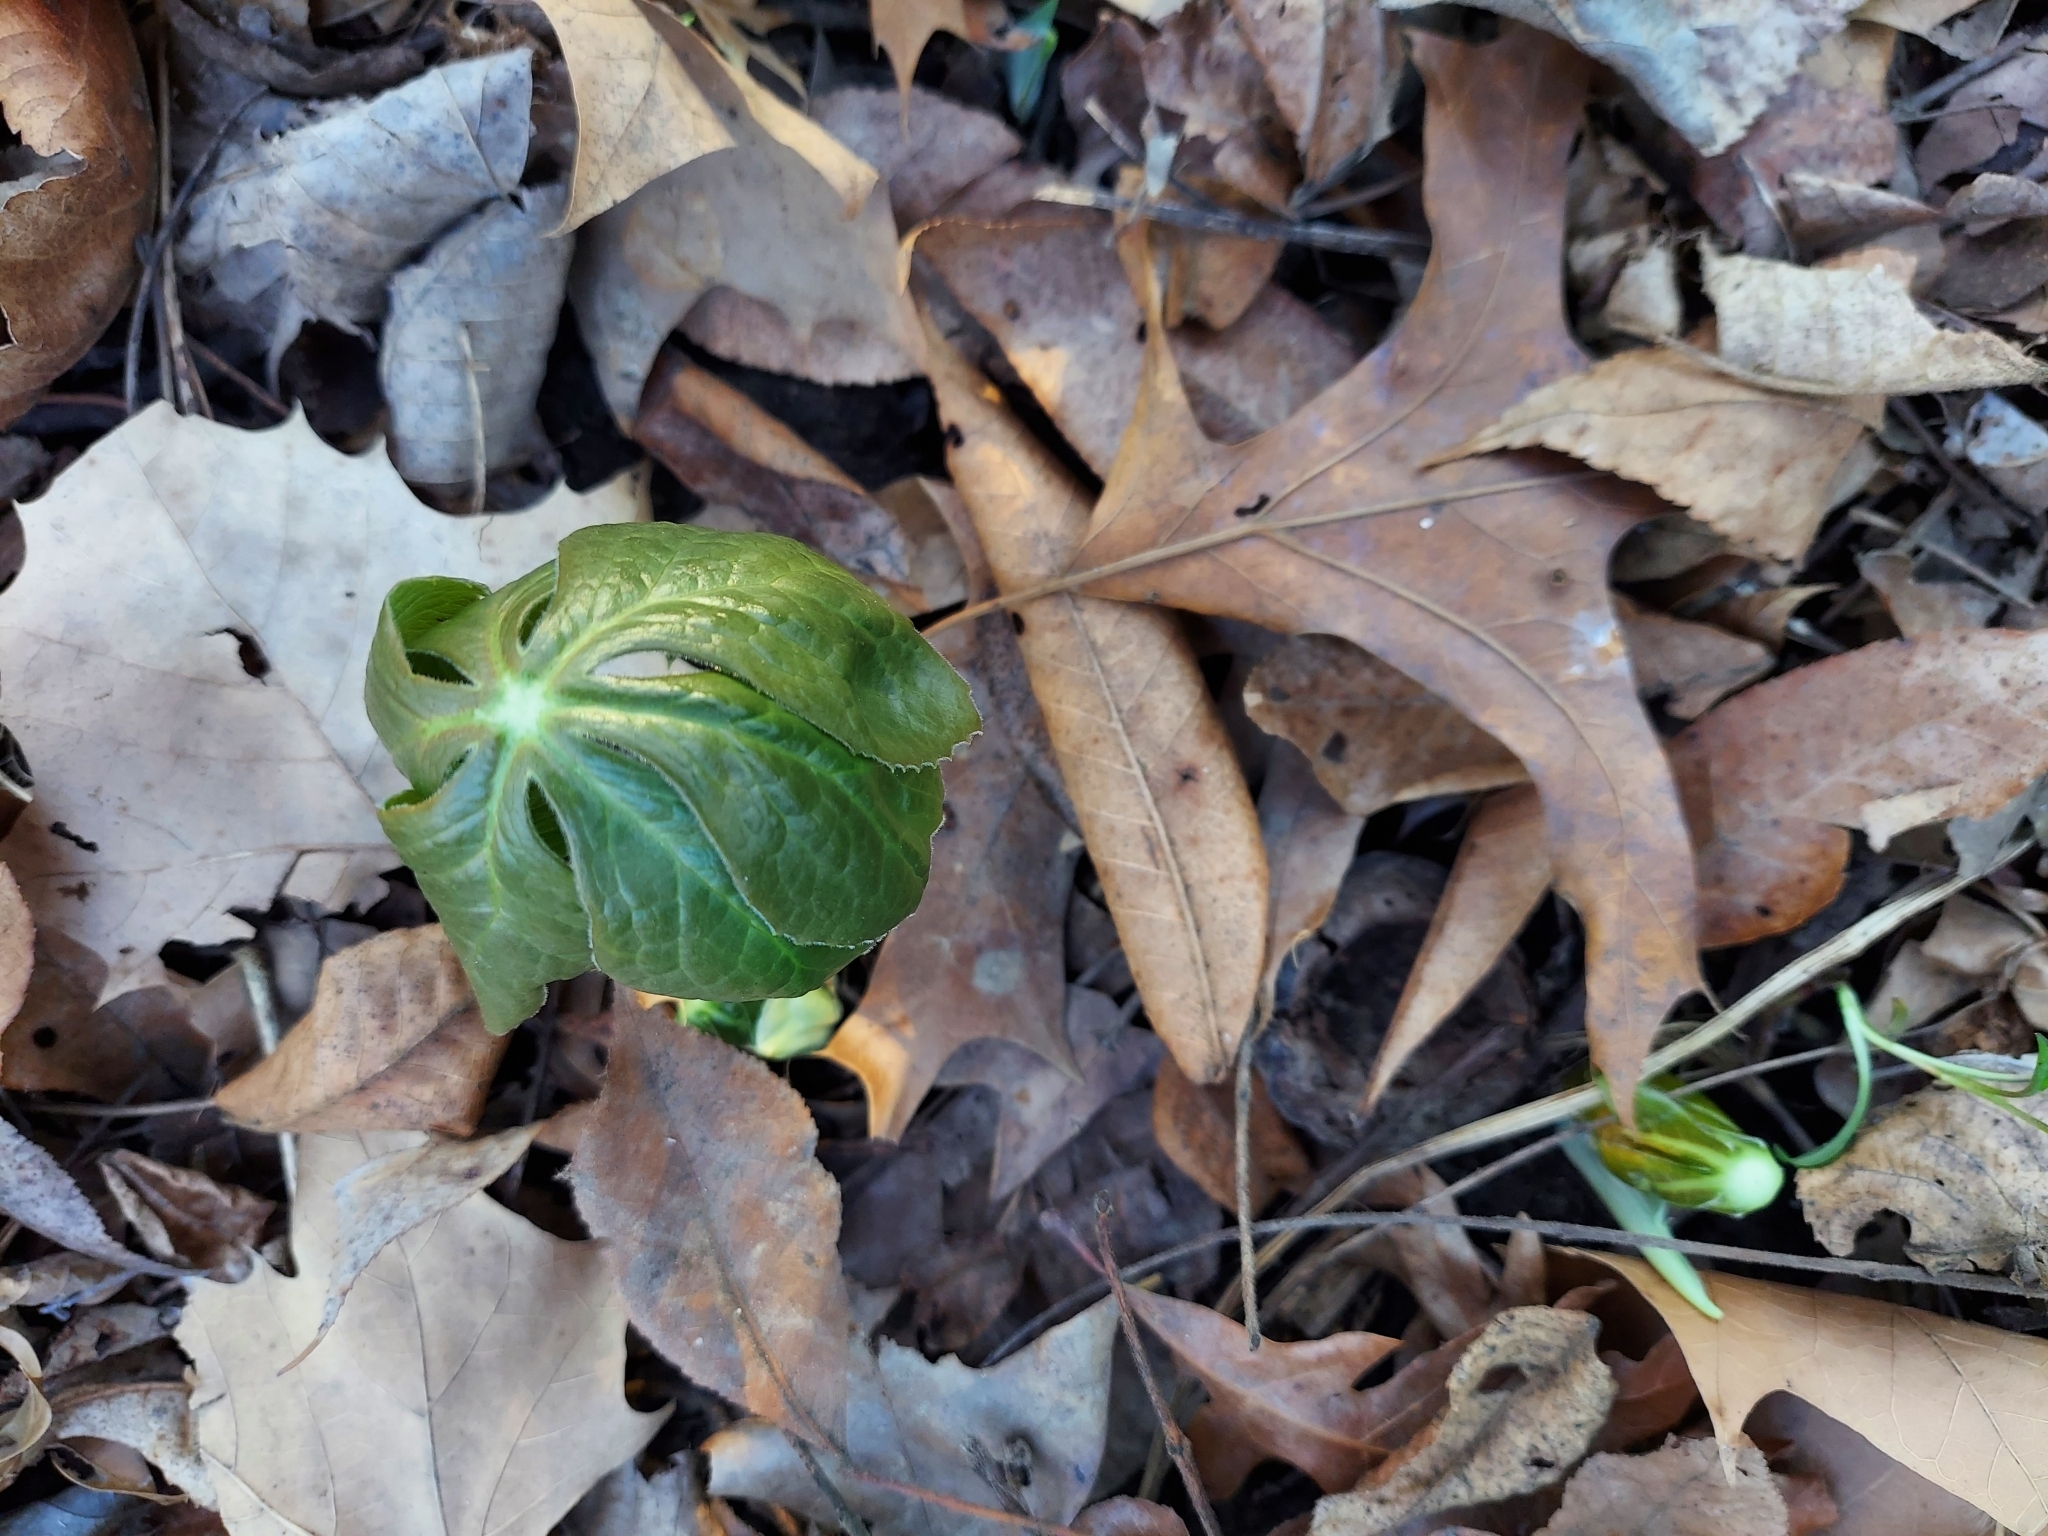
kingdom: Plantae
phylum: Tracheophyta
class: Magnoliopsida
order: Ranunculales
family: Berberidaceae
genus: Podophyllum
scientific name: Podophyllum peltatum
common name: Wild mandrake
